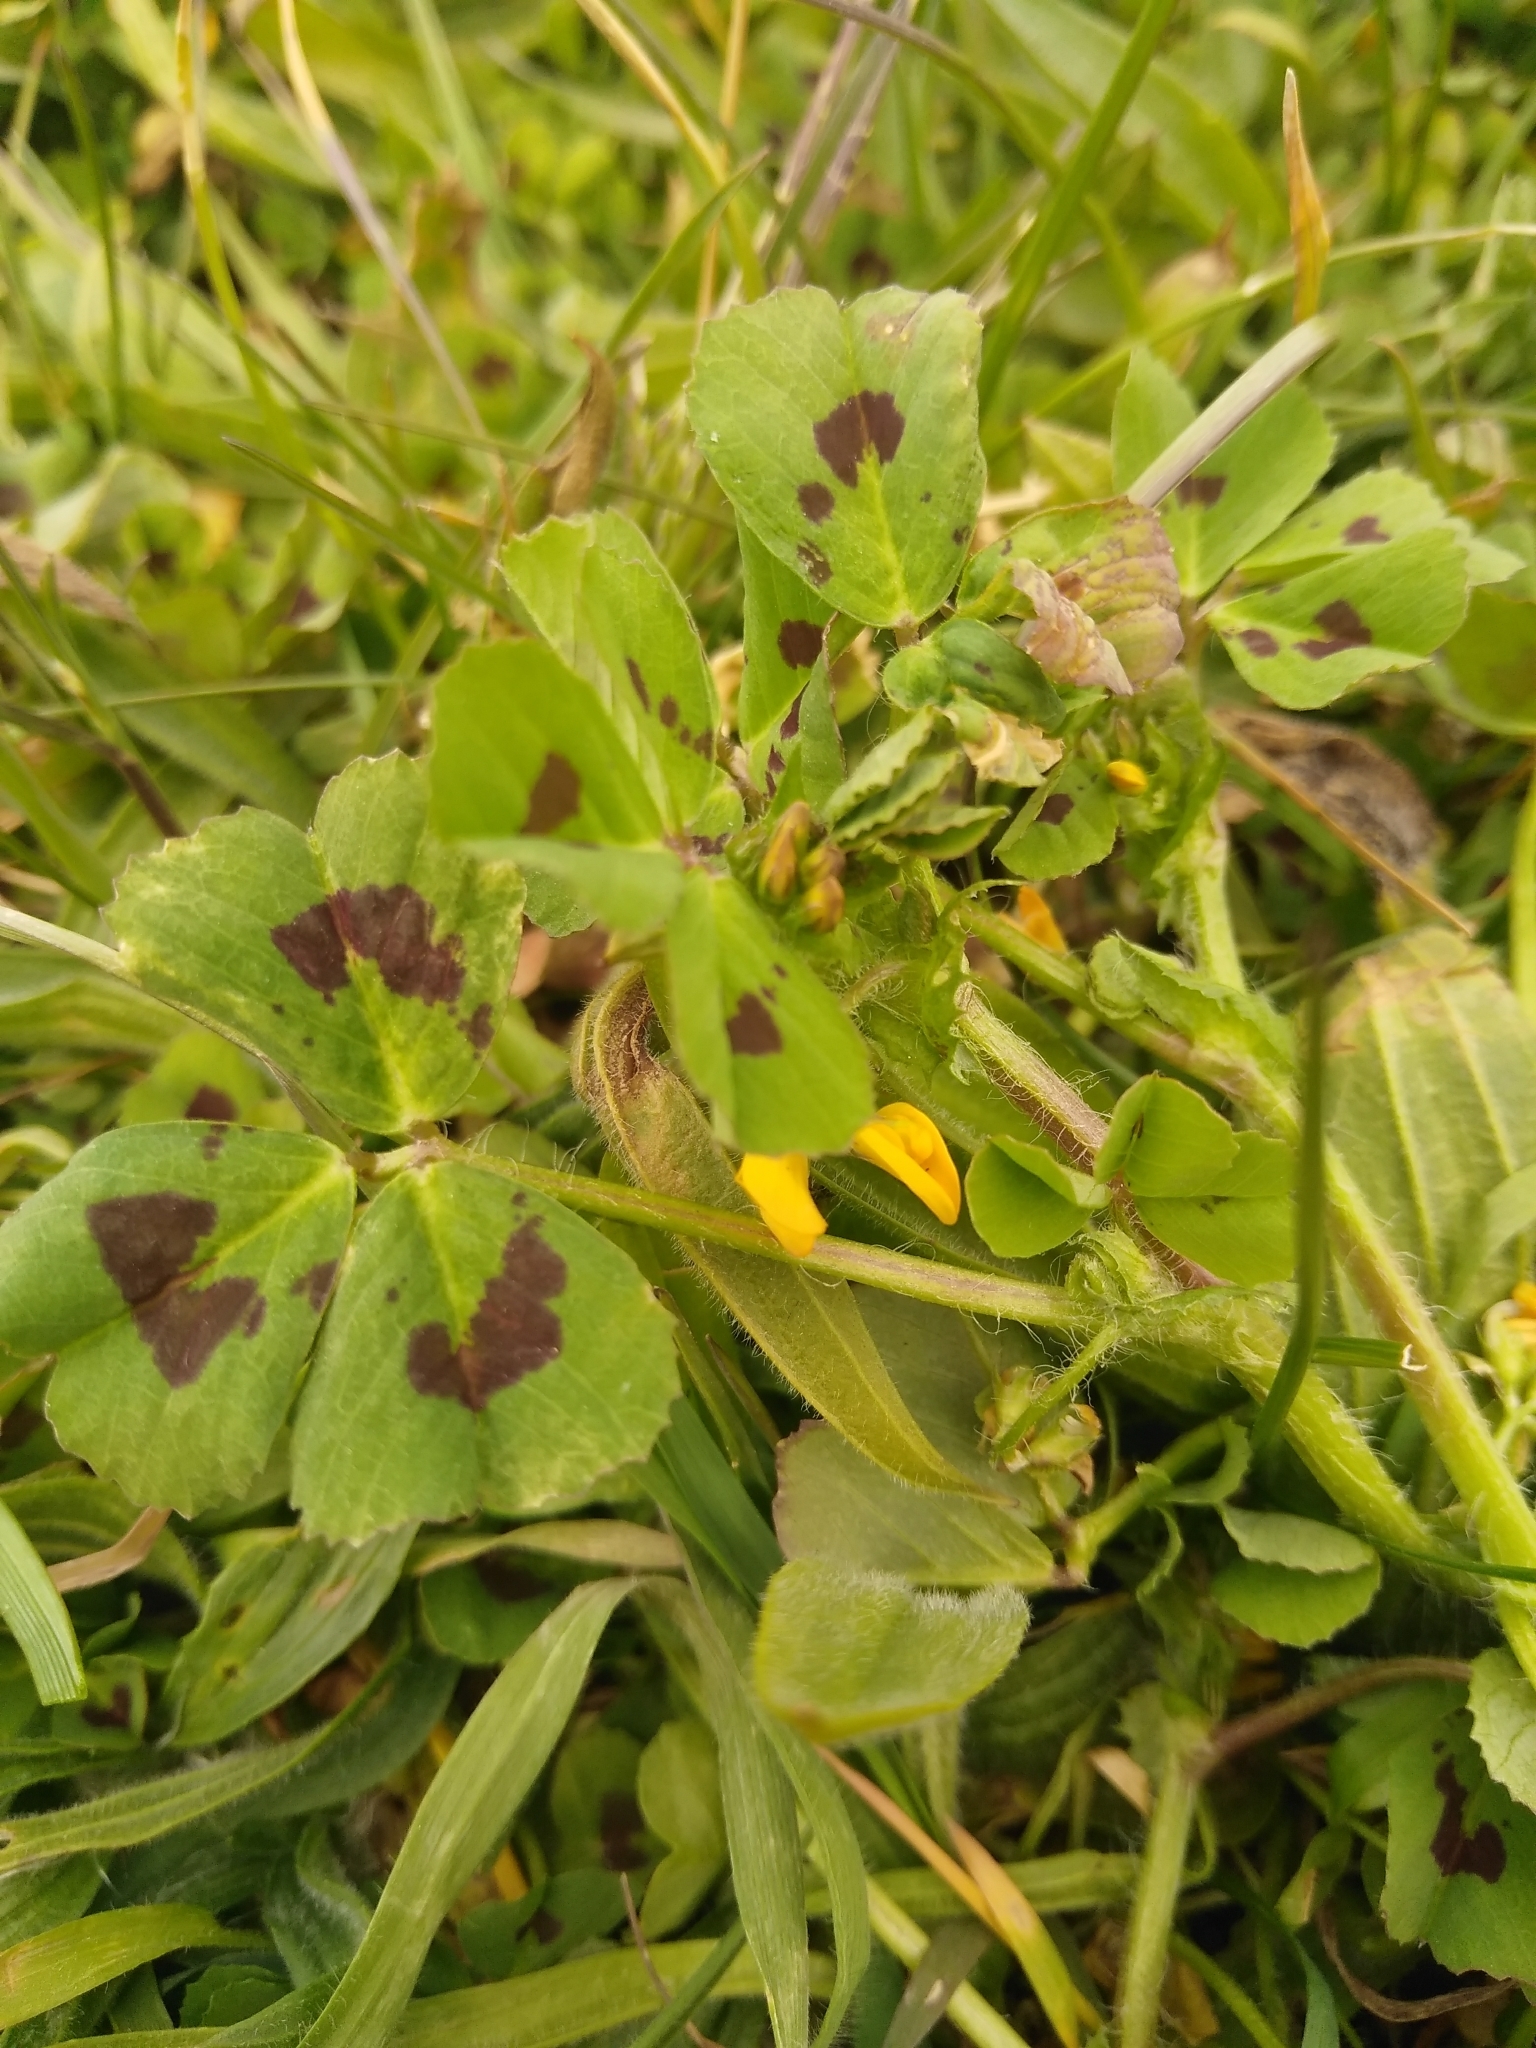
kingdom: Plantae
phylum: Tracheophyta
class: Magnoliopsida
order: Fabales
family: Fabaceae
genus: Medicago
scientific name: Medicago arabica
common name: Spotted medick
